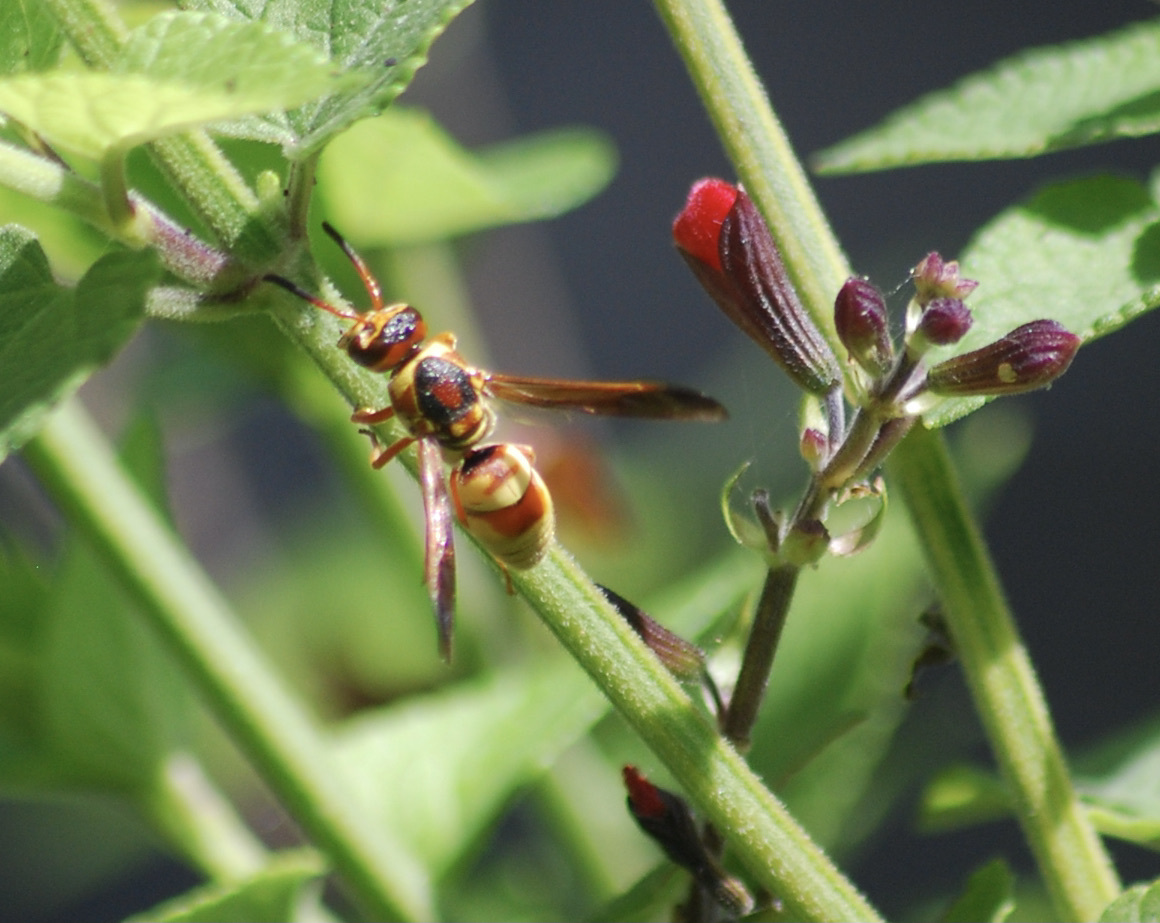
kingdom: Animalia
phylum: Arthropoda
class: Insecta
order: Hymenoptera
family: Eumenidae
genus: Euodynerus
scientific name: Euodynerus pratensis
